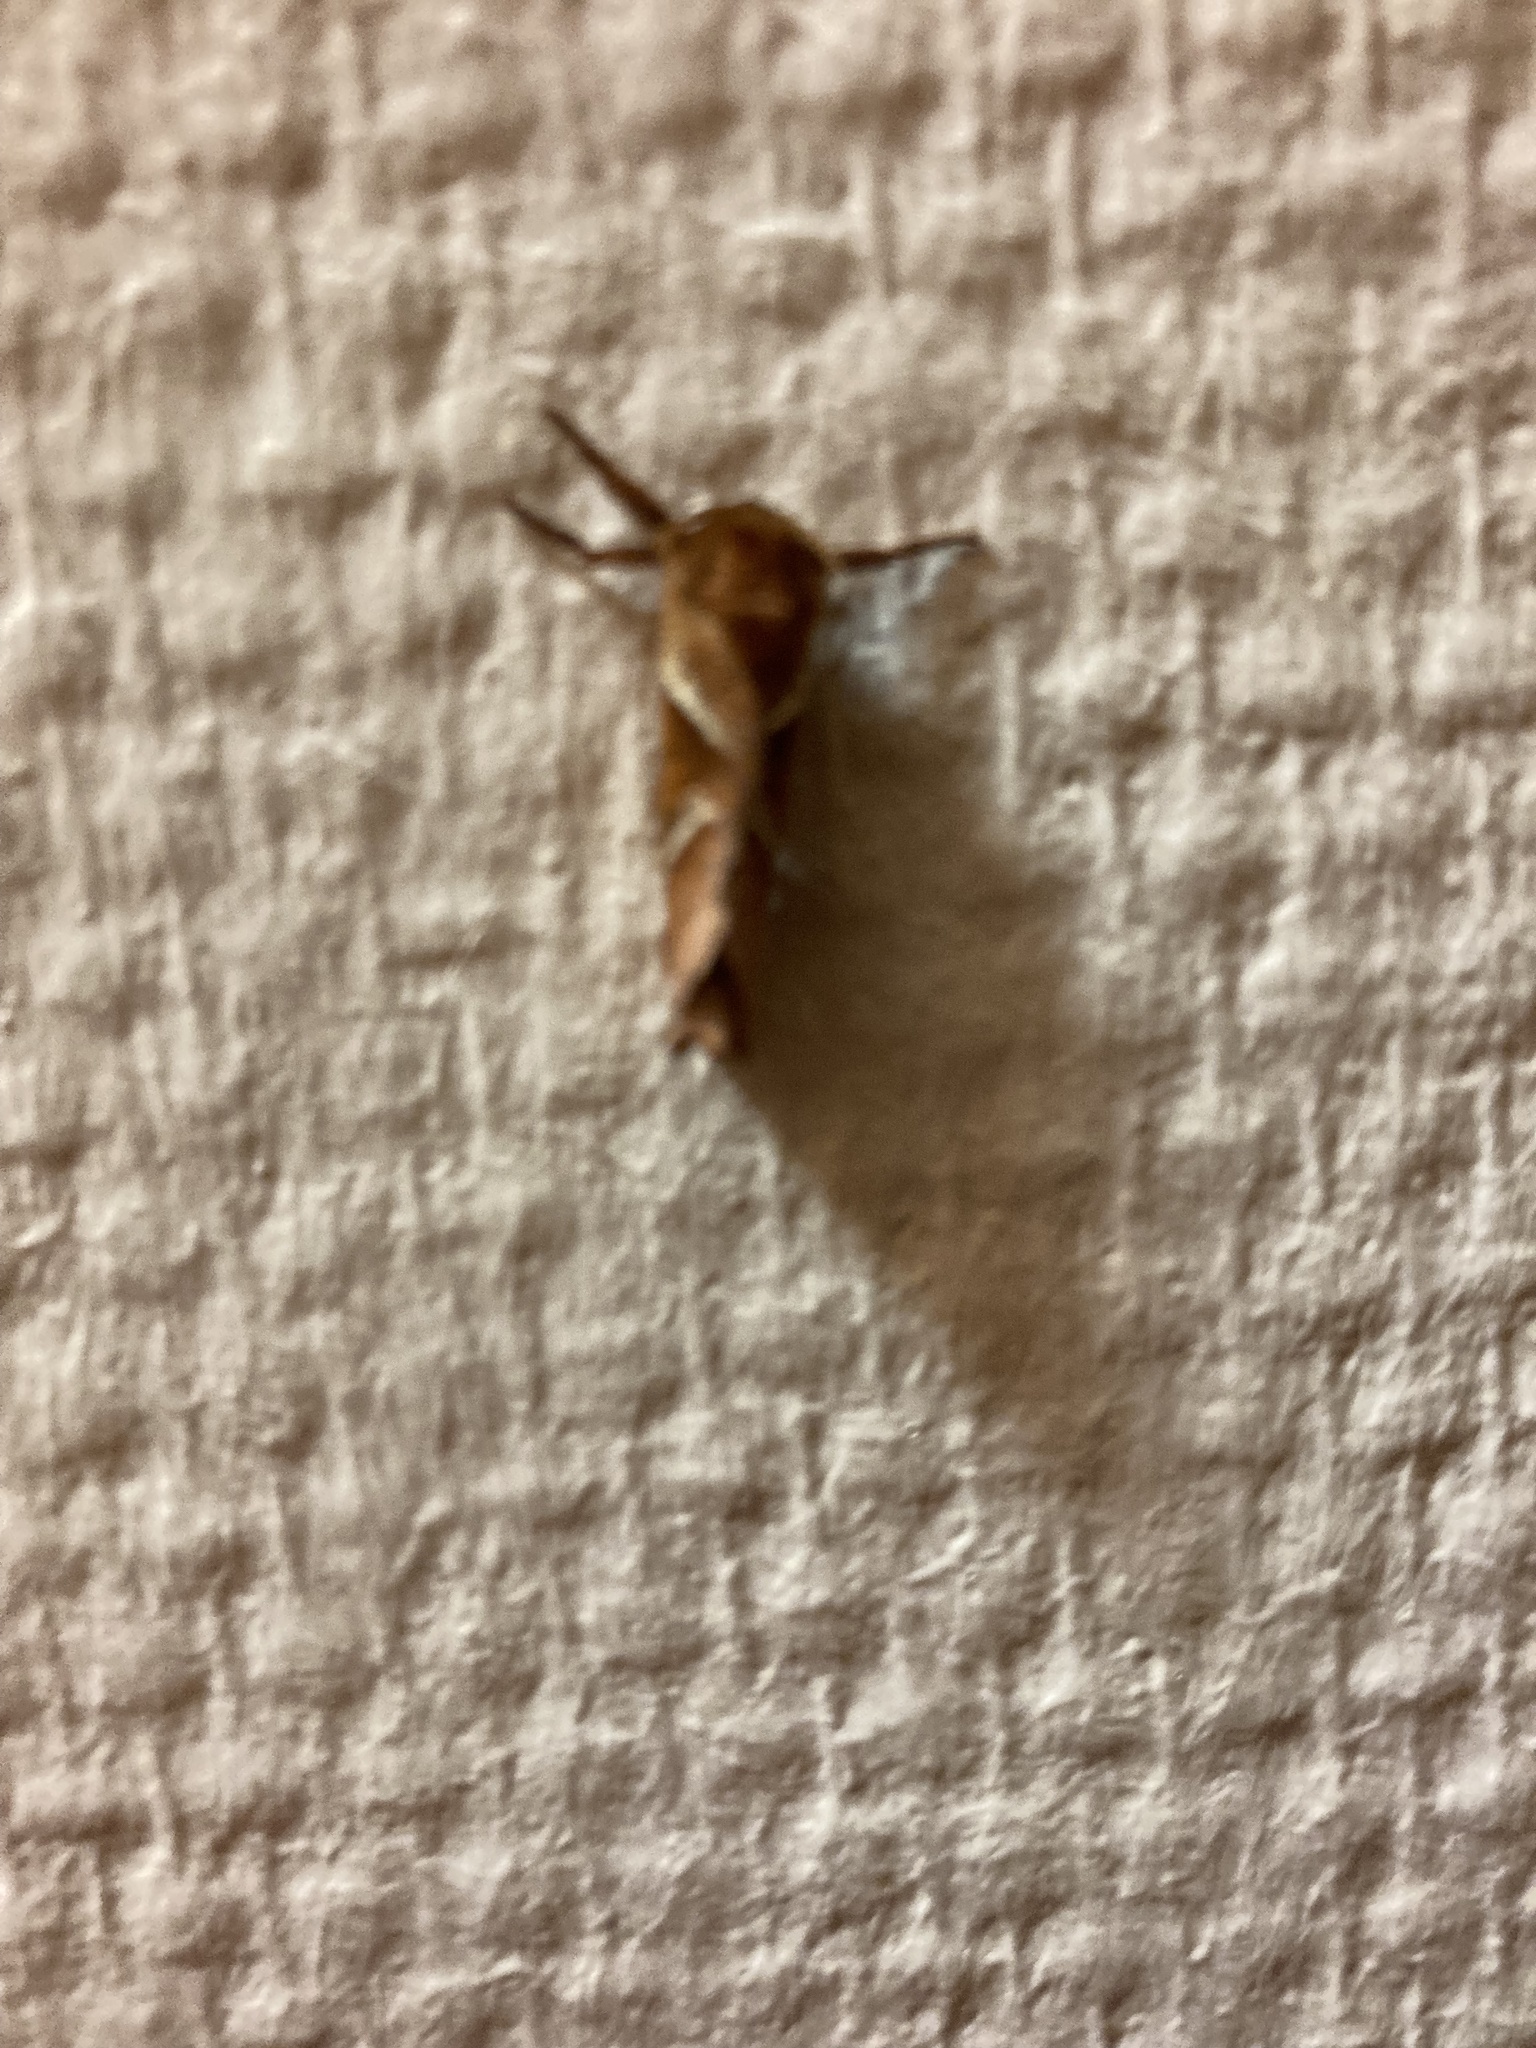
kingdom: Animalia
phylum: Arthropoda
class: Insecta
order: Lepidoptera
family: Hepialidae
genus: Triodia
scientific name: Triodia sylvina
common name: Orange swift
